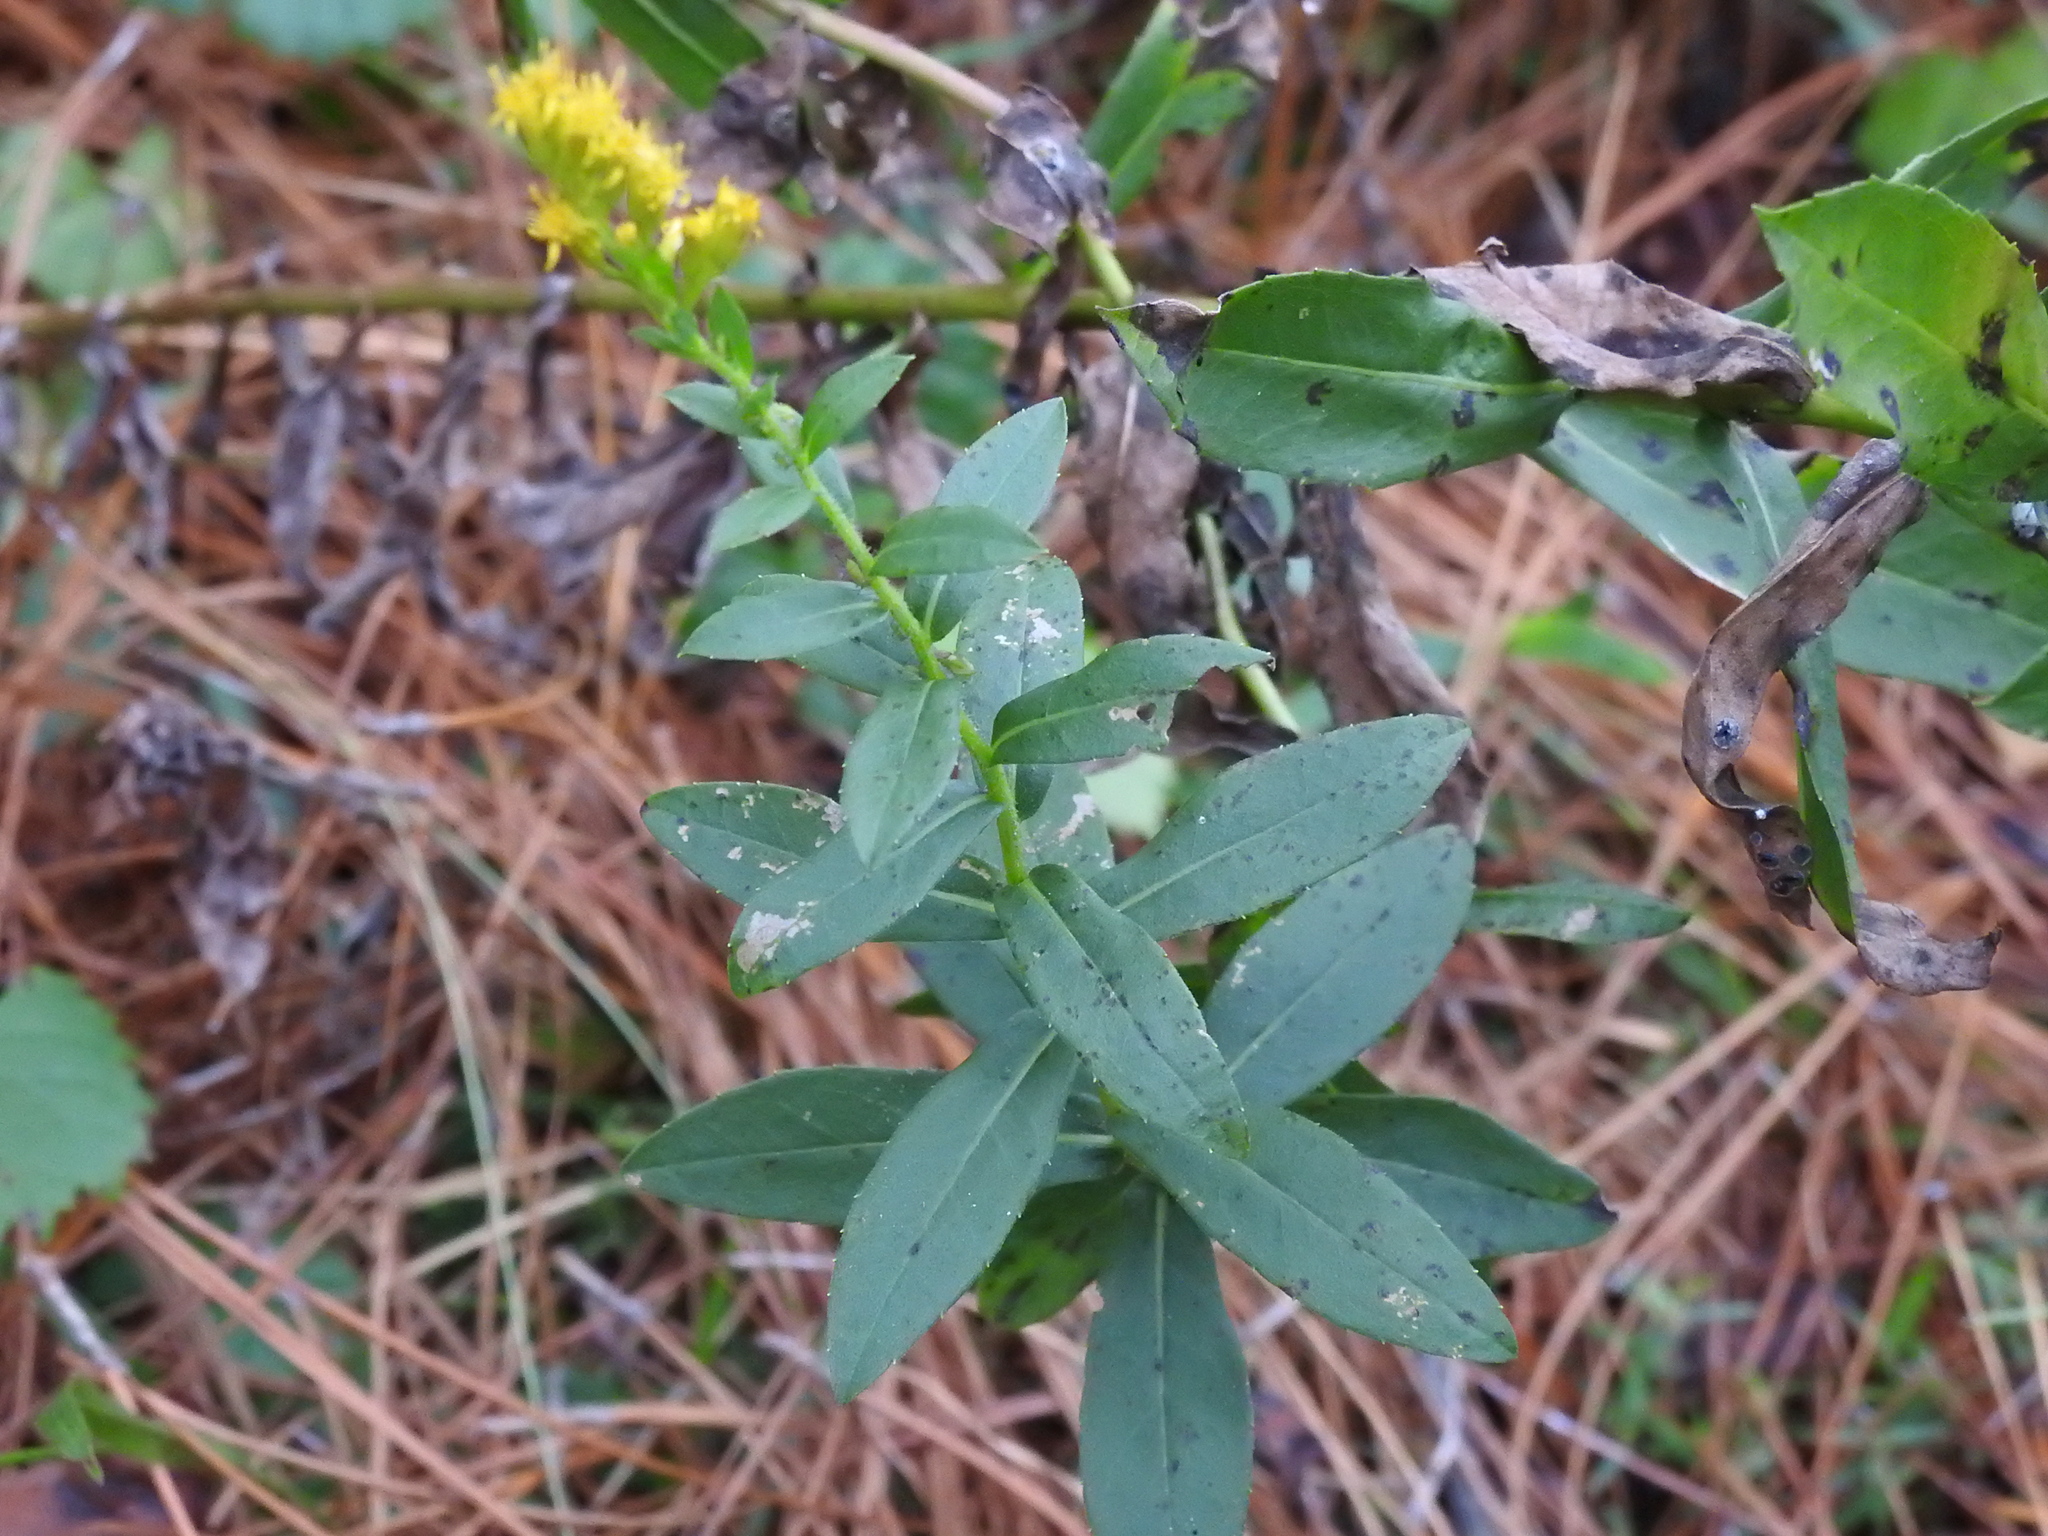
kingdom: Plantae
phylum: Tracheophyta
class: Magnoliopsida
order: Asterales
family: Asteraceae
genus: Solidago
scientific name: Solidago fistulosa
